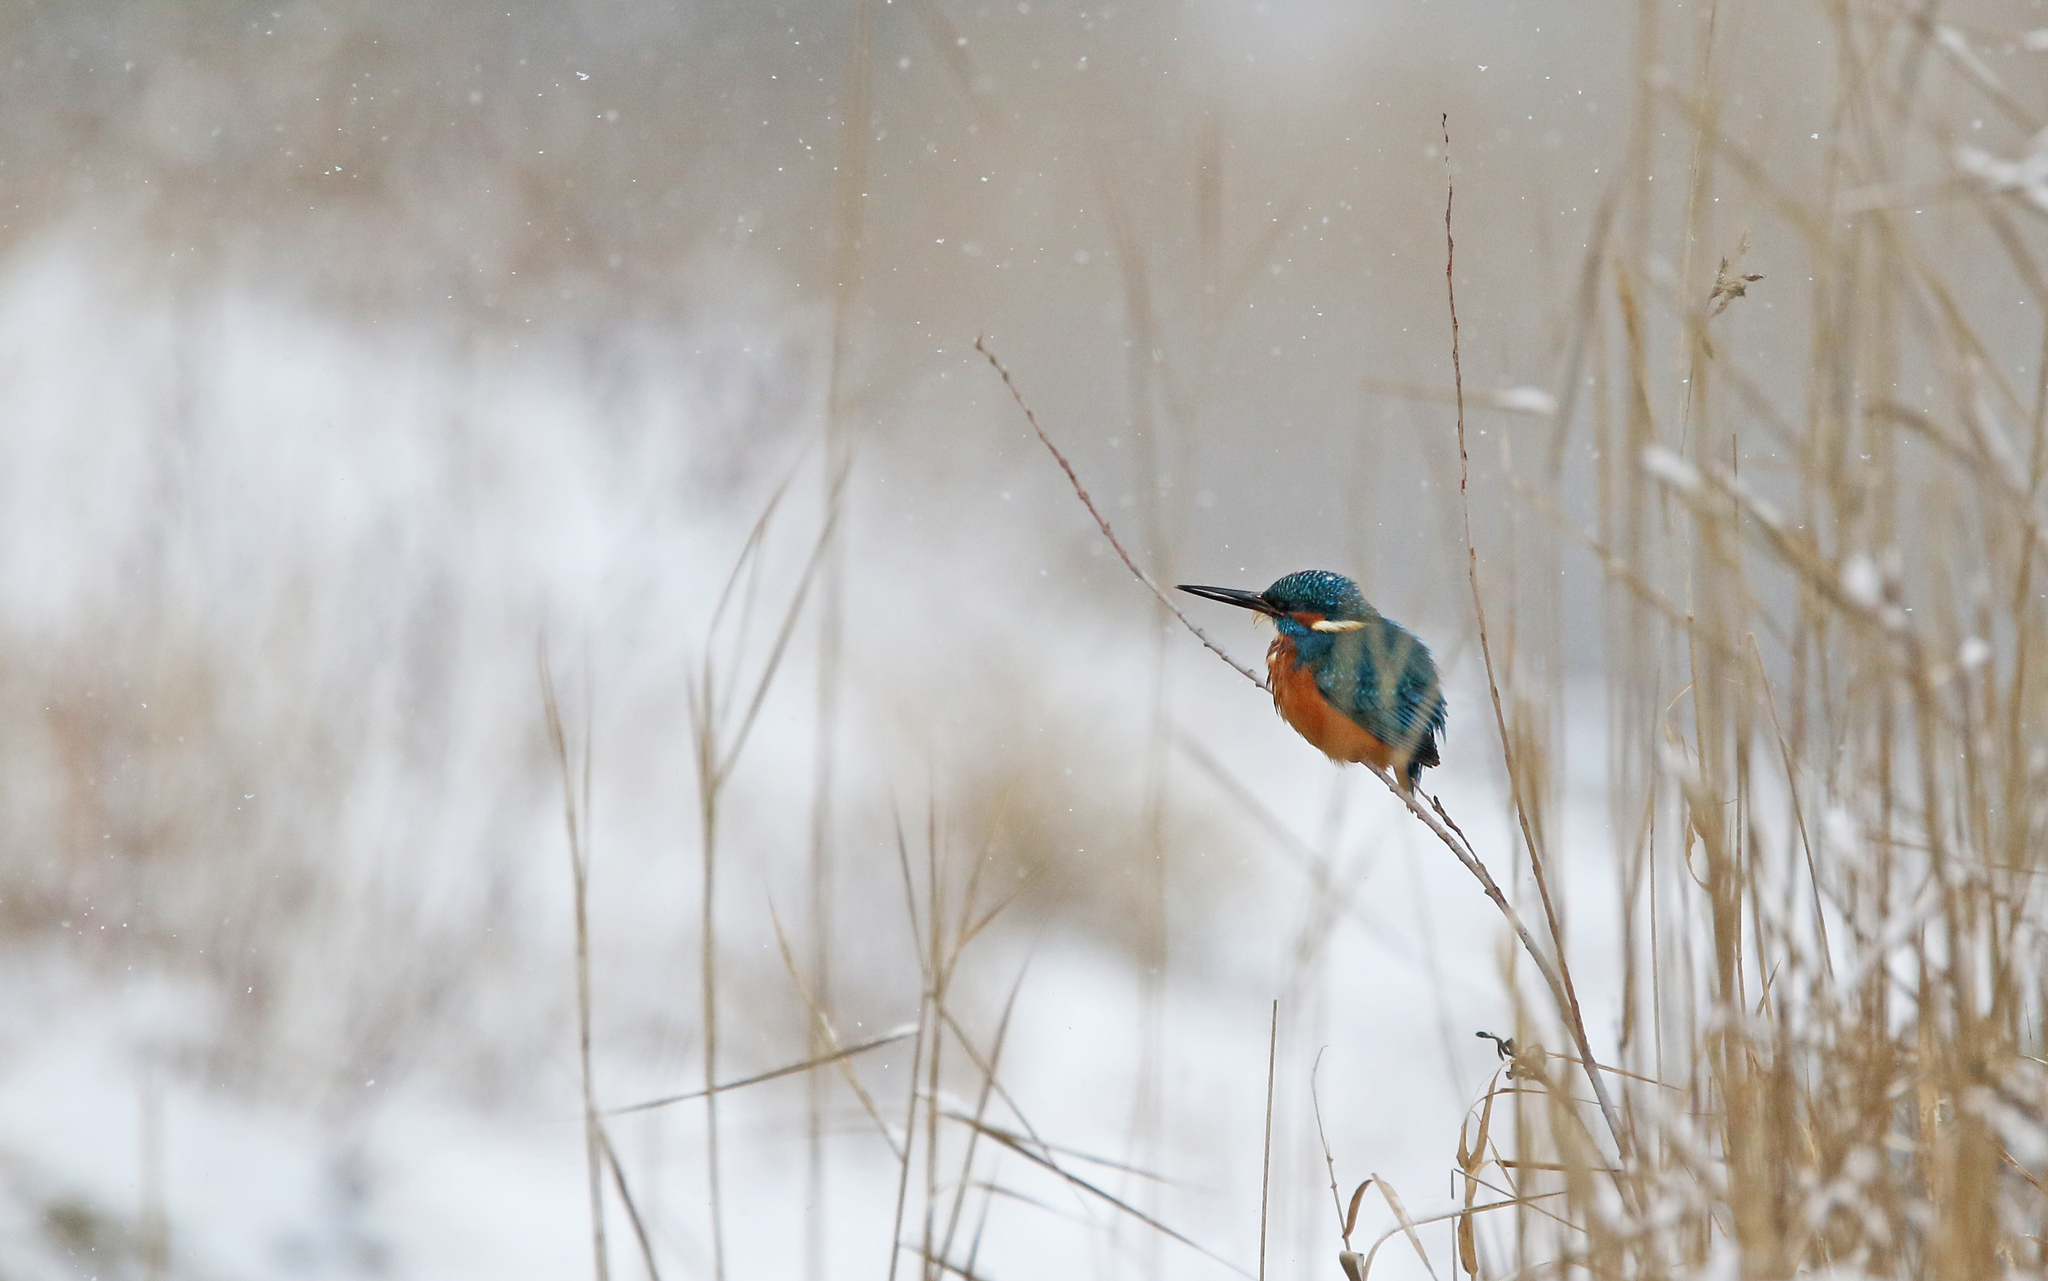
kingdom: Animalia
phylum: Chordata
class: Aves
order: Coraciiformes
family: Alcedinidae
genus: Alcedo
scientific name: Alcedo atthis
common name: Common kingfisher
